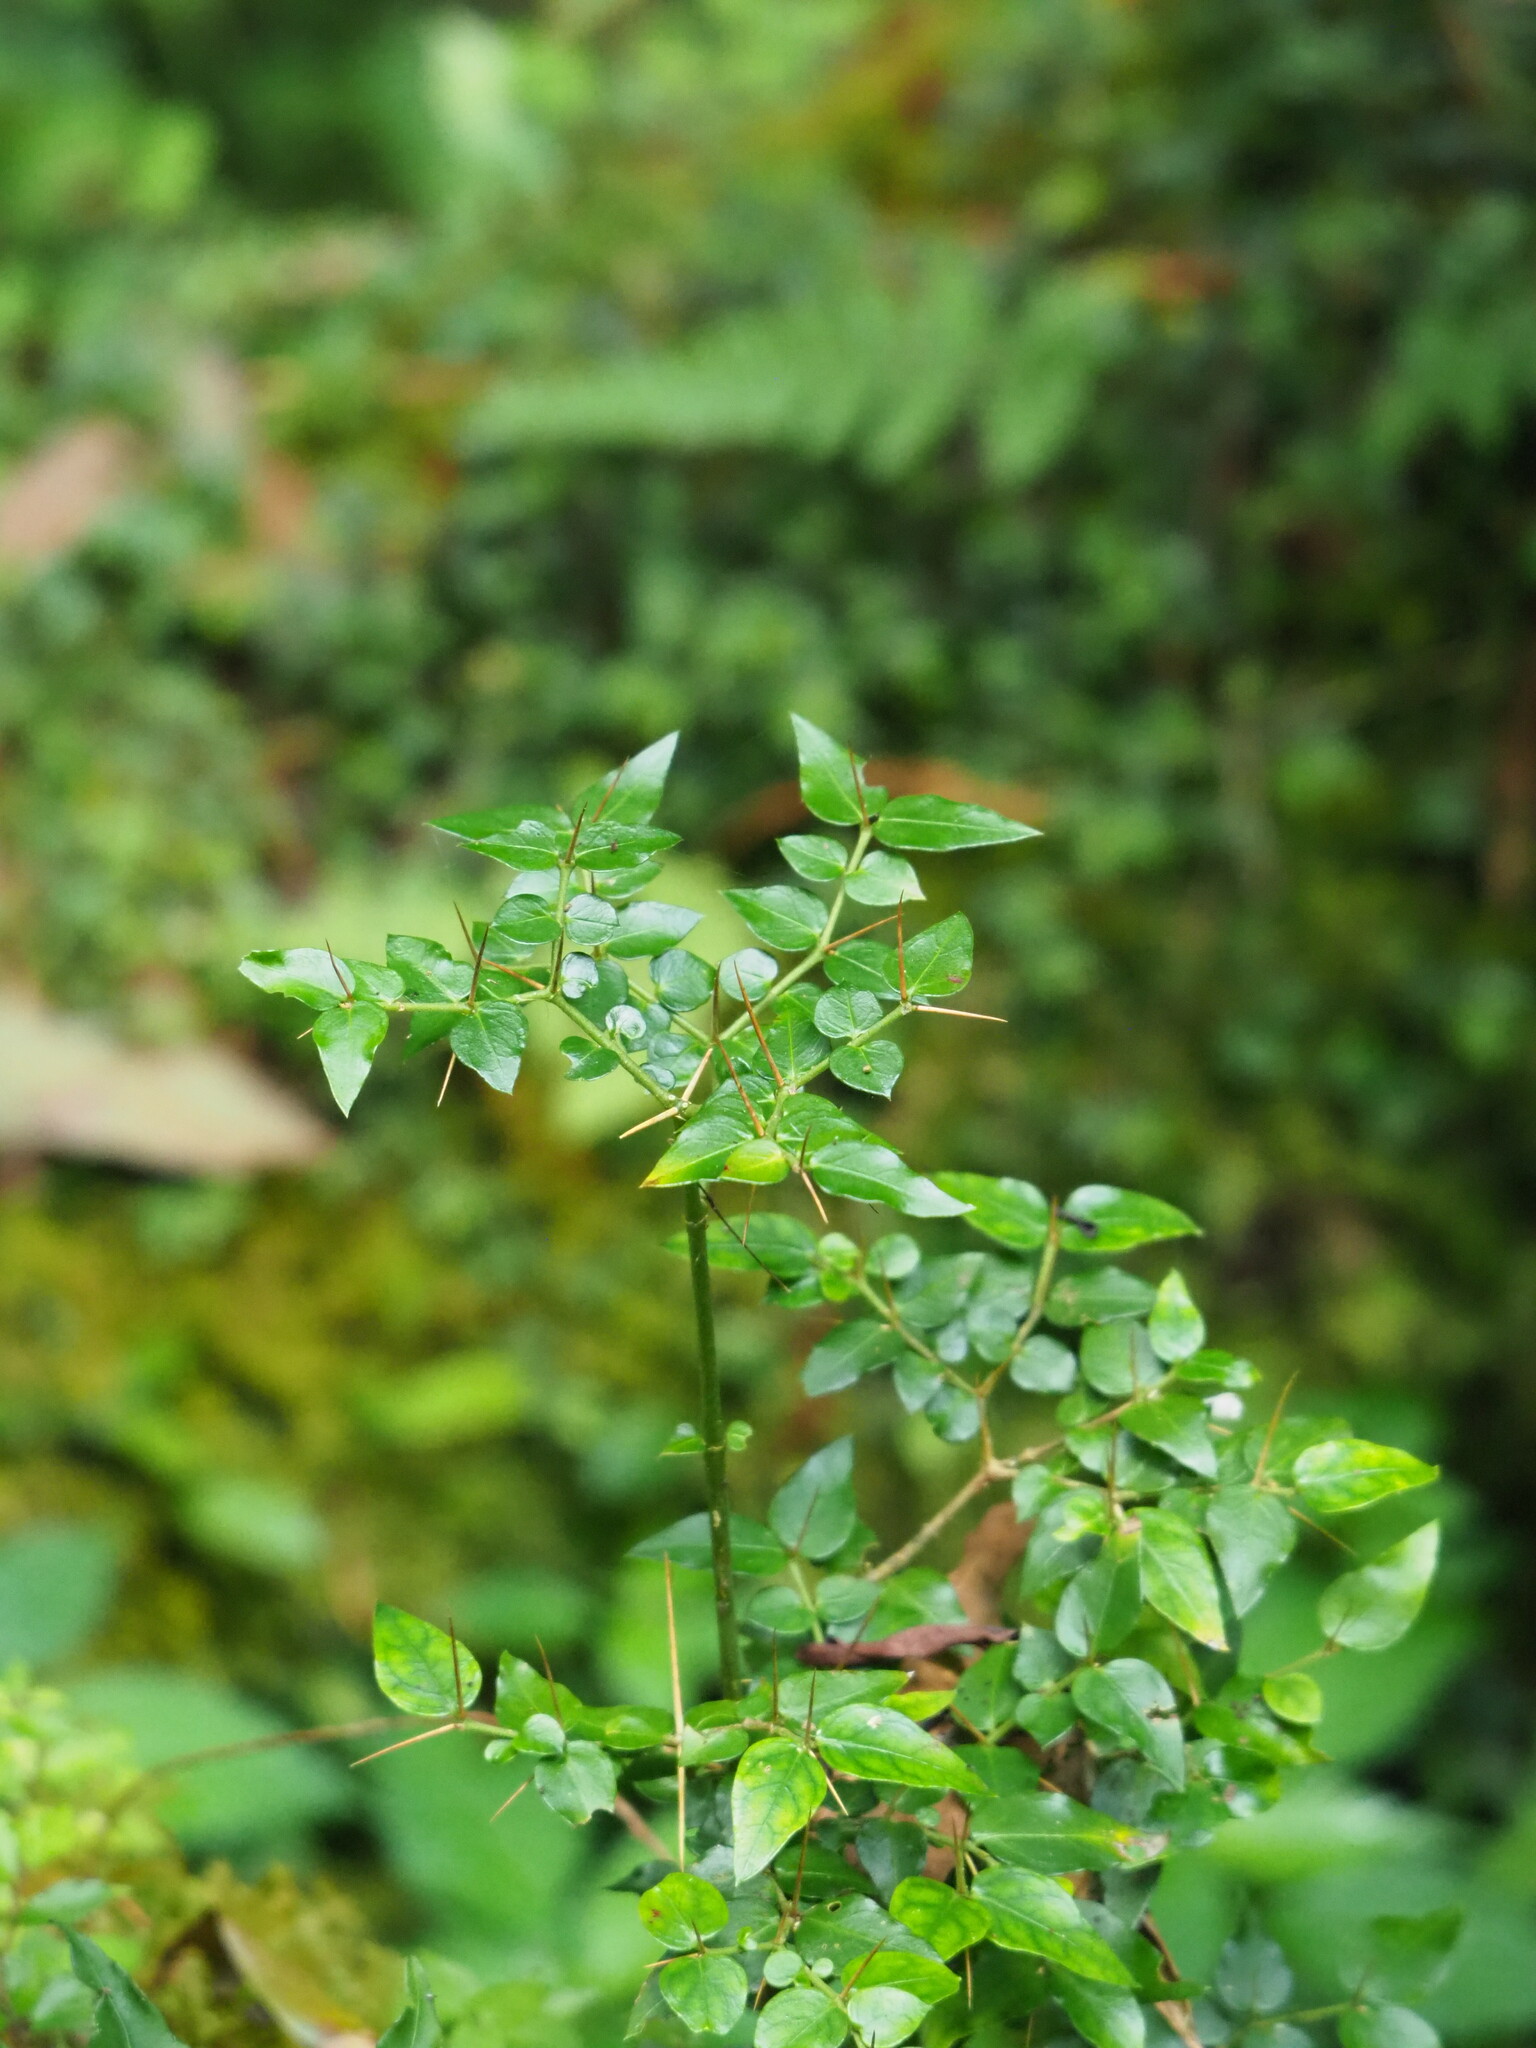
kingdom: Plantae
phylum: Tracheophyta
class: Magnoliopsida
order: Gentianales
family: Rubiaceae
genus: Damnacanthus
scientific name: Damnacanthus indicus
